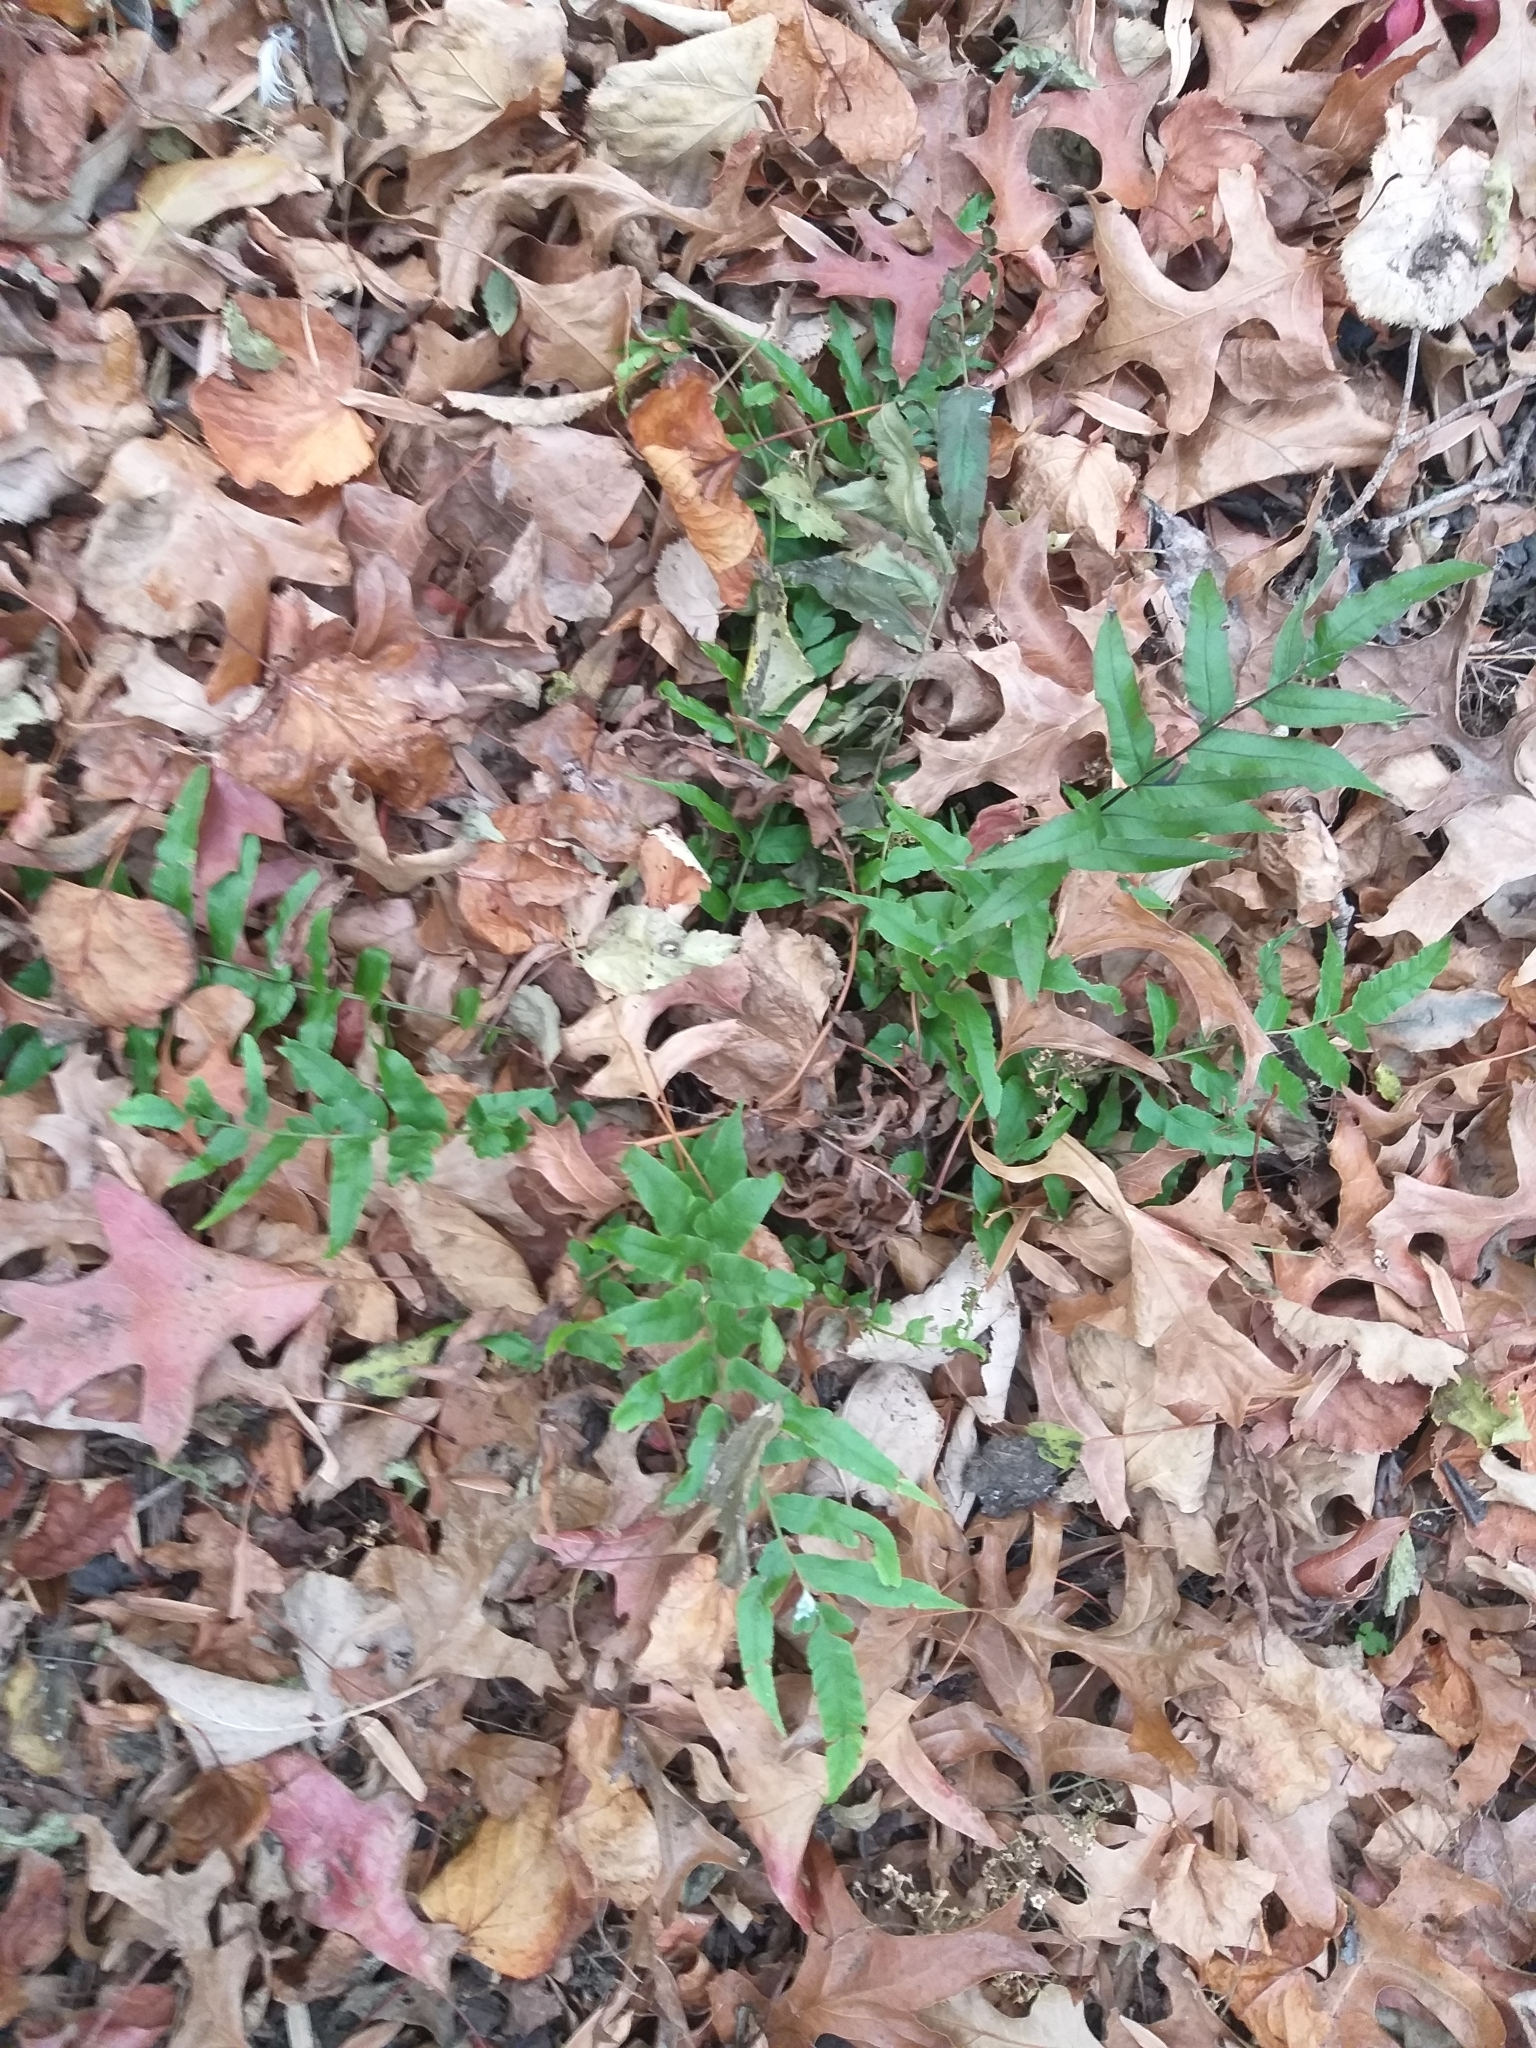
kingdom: Plantae
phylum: Tracheophyta
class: Polypodiopsida
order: Polypodiales
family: Blechnaceae
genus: Blechnum
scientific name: Blechnum
